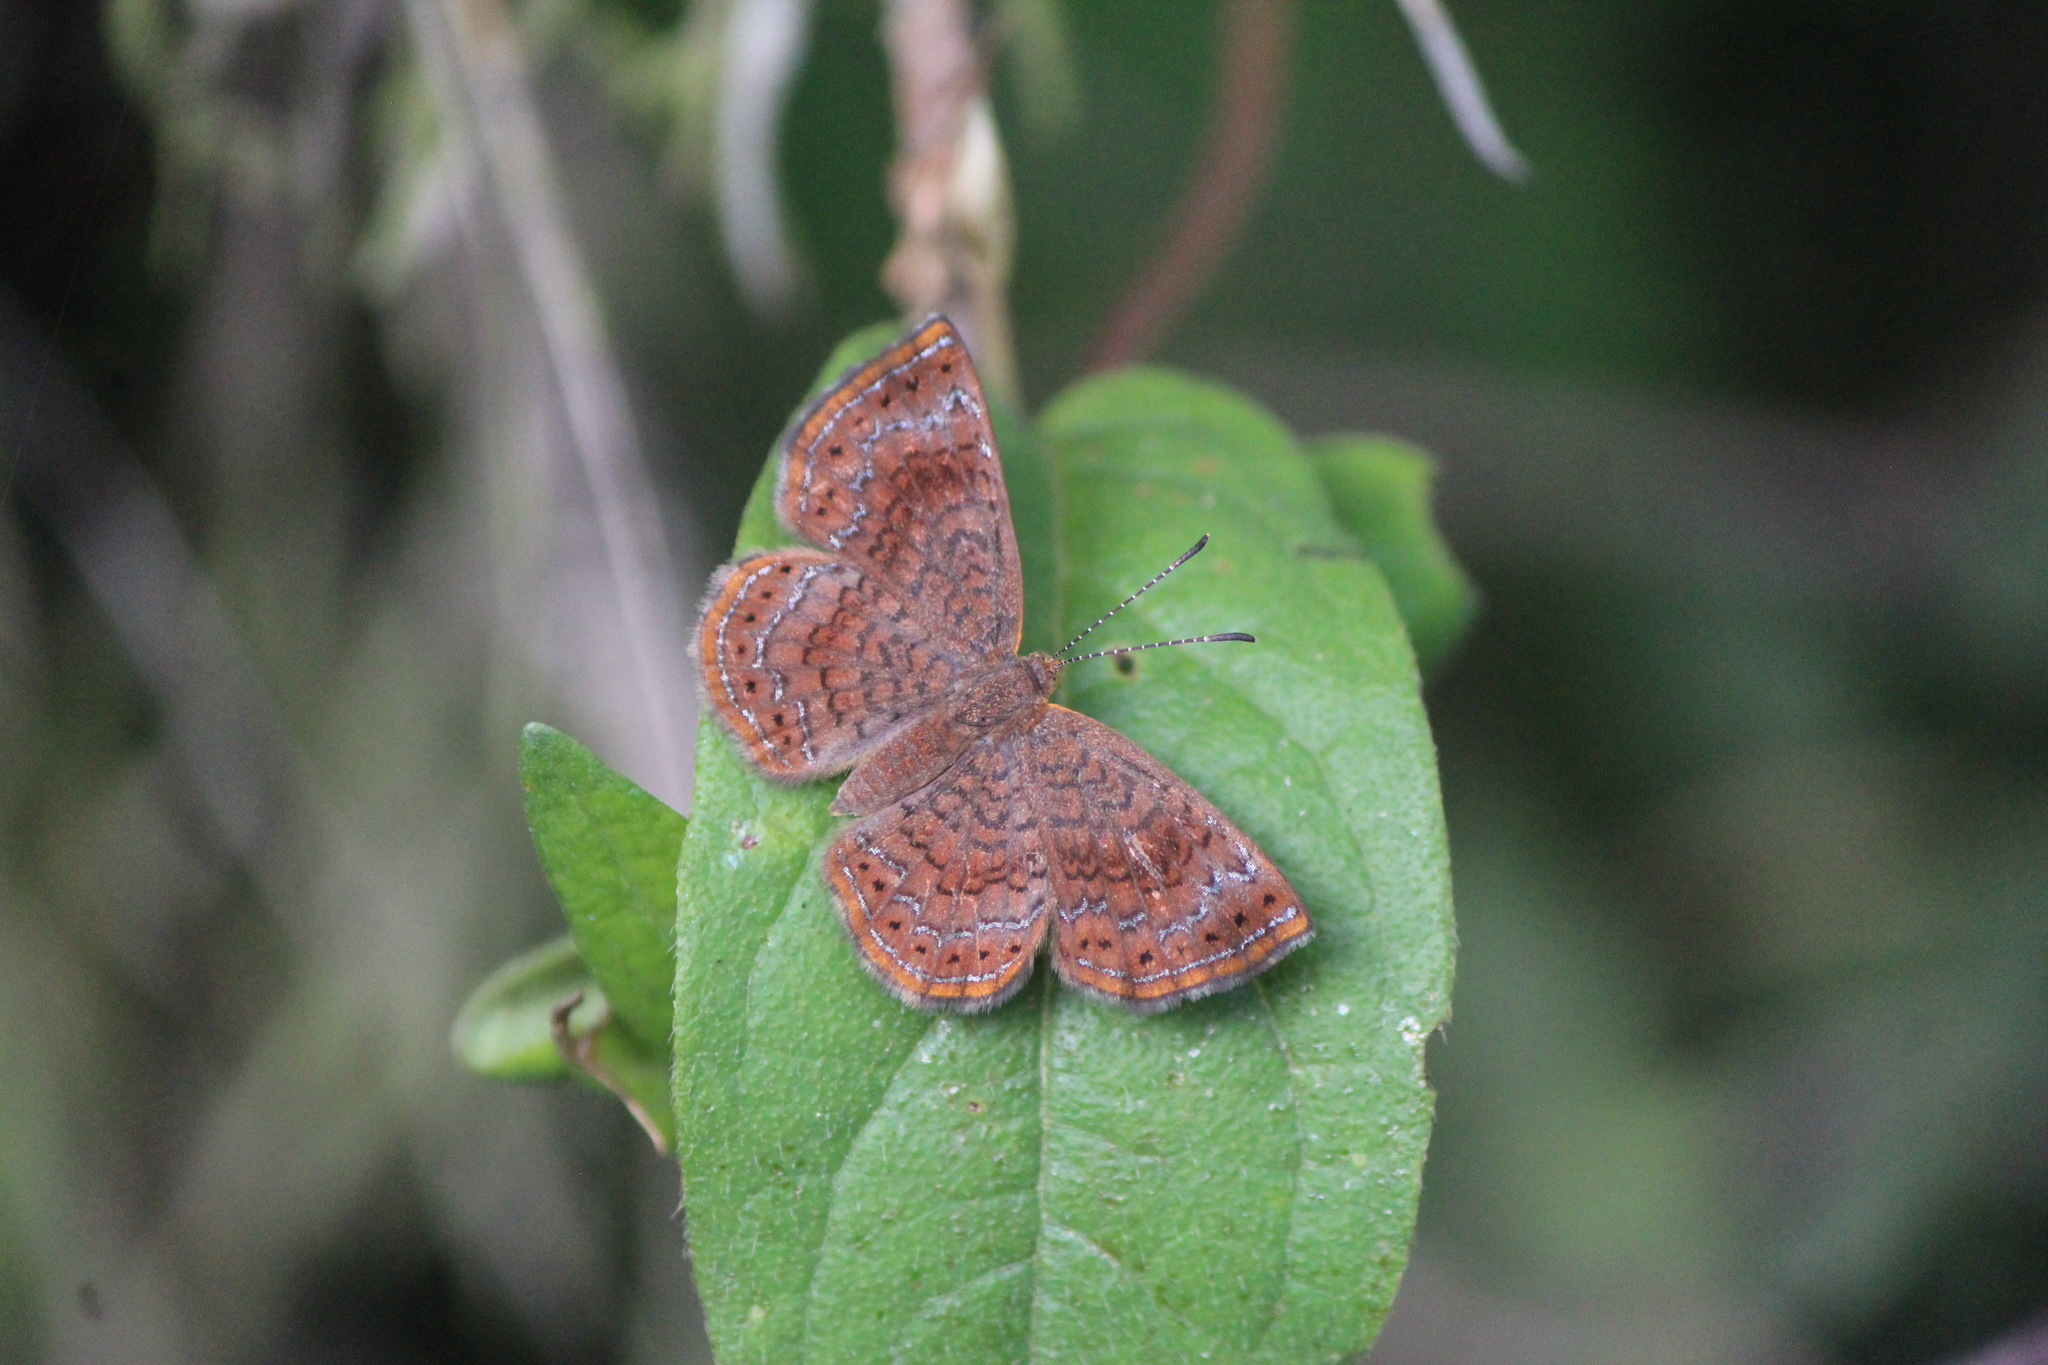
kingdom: Animalia
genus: Calephelis
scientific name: Calephelis
